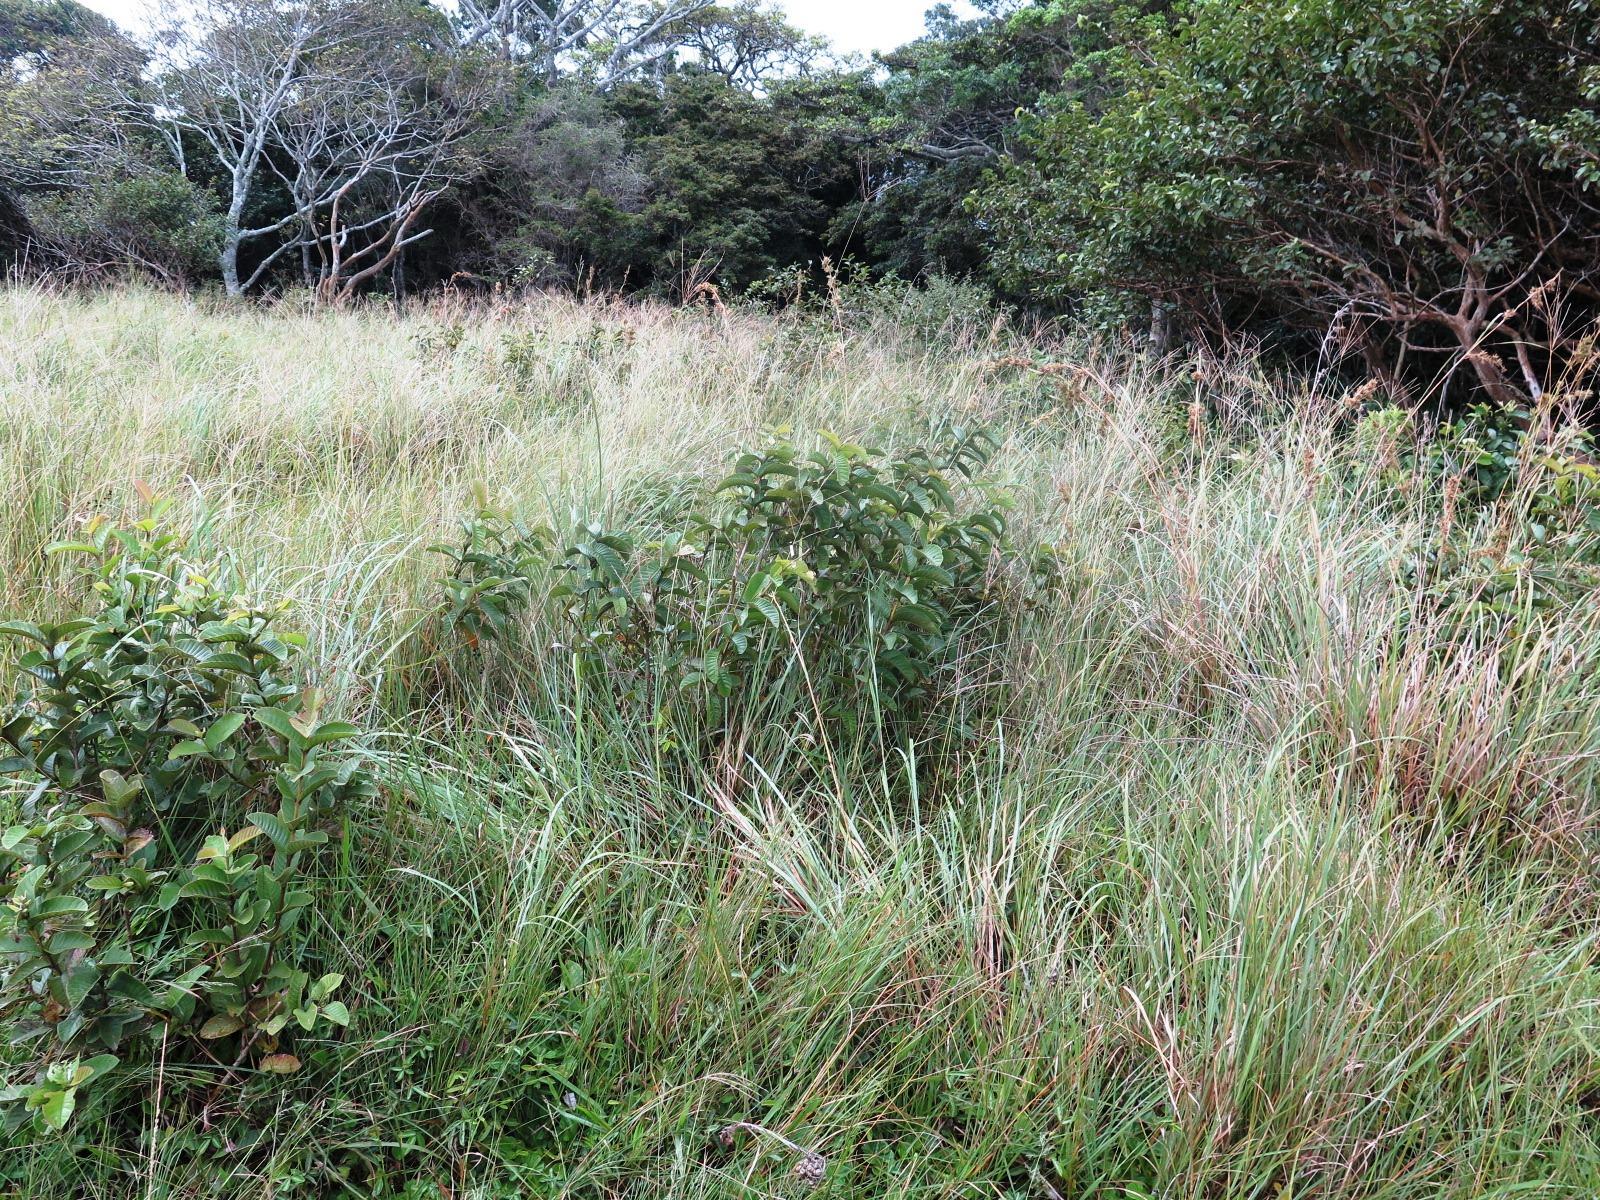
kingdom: Plantae
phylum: Tracheophyta
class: Magnoliopsida
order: Myrtales
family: Myrtaceae
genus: Psidium
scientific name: Psidium guajava
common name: Guava
